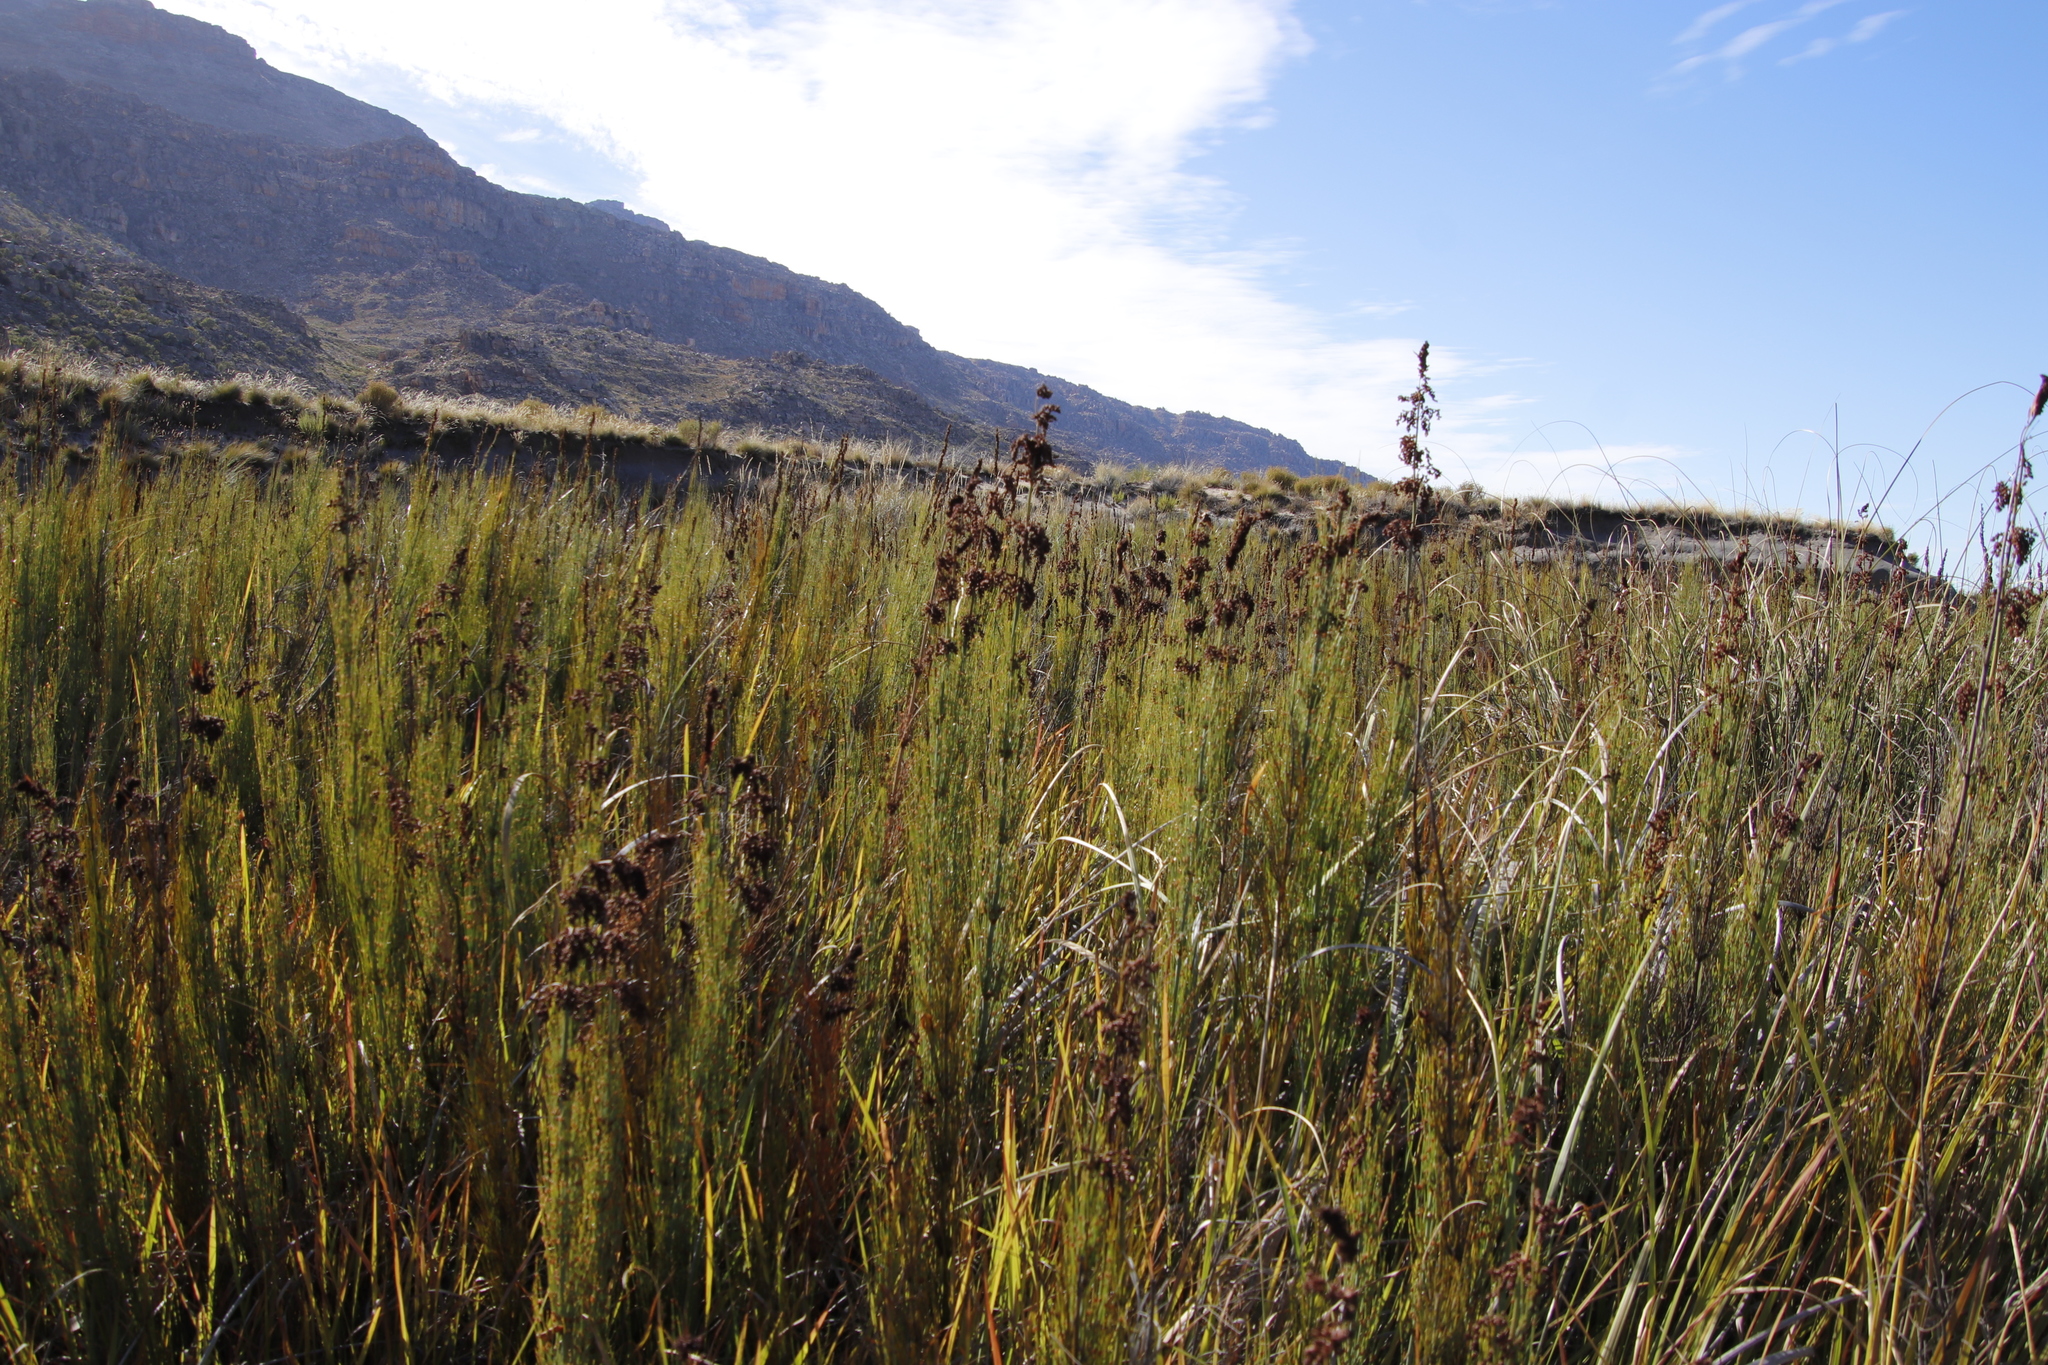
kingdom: Plantae
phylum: Tracheophyta
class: Liliopsida
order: Poales
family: Restionaceae
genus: Elegia
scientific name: Elegia capensis
